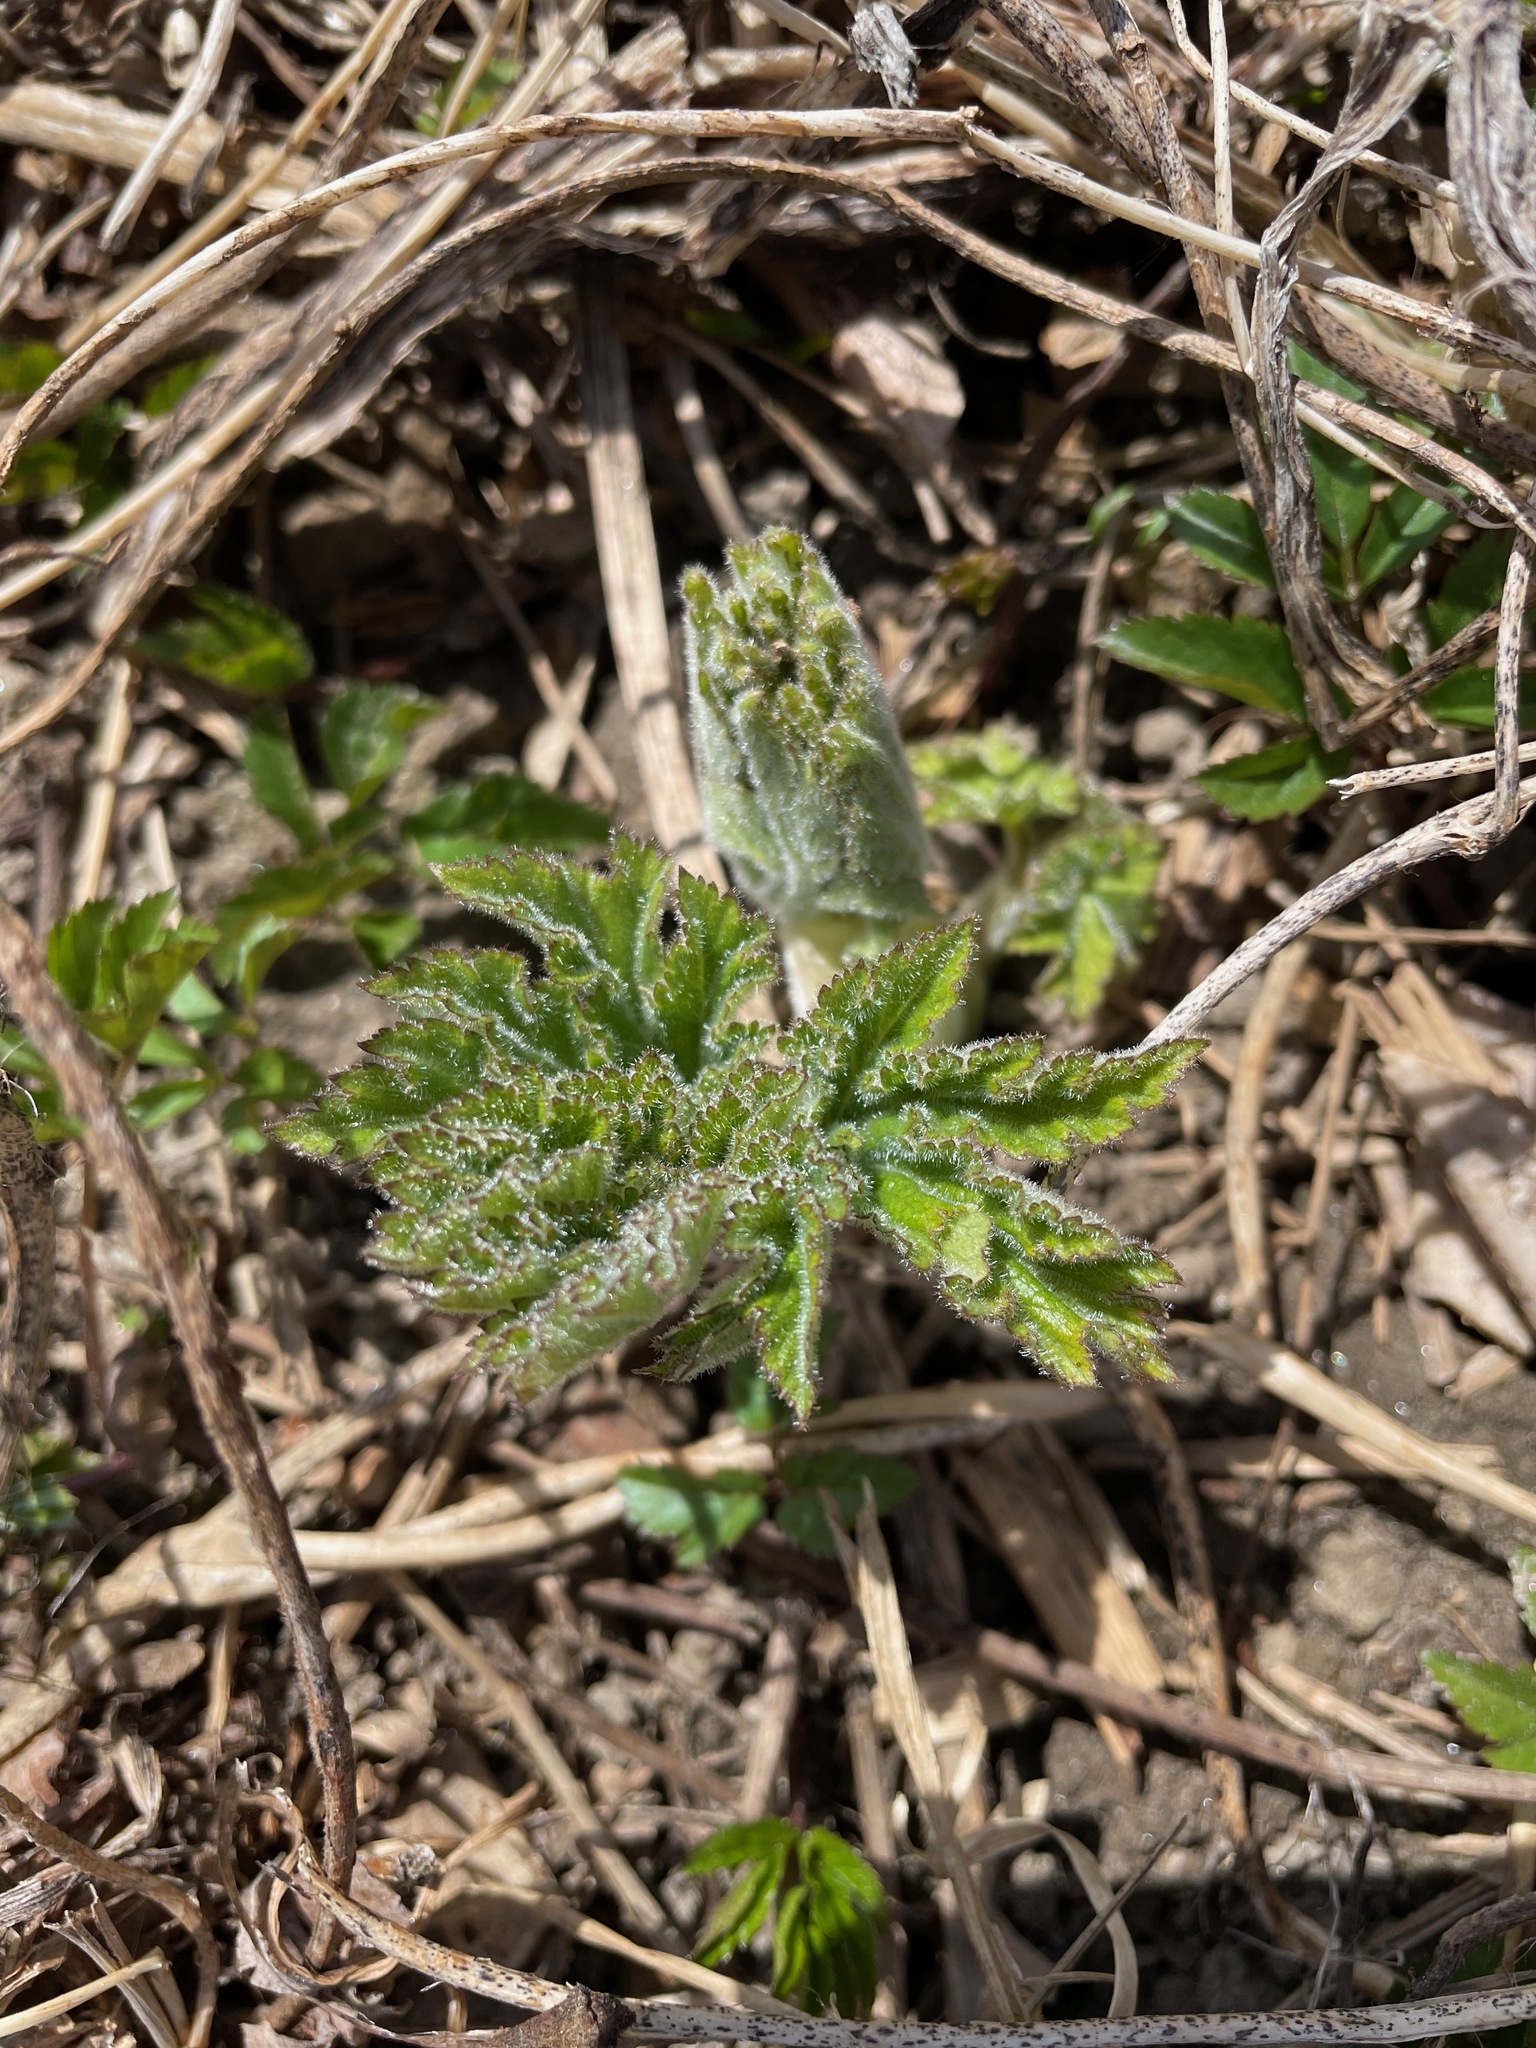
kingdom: Plantae
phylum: Tracheophyta
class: Magnoliopsida
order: Apiales
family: Apiaceae
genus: Heracleum
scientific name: Heracleum maximum
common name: American cow parsnip
